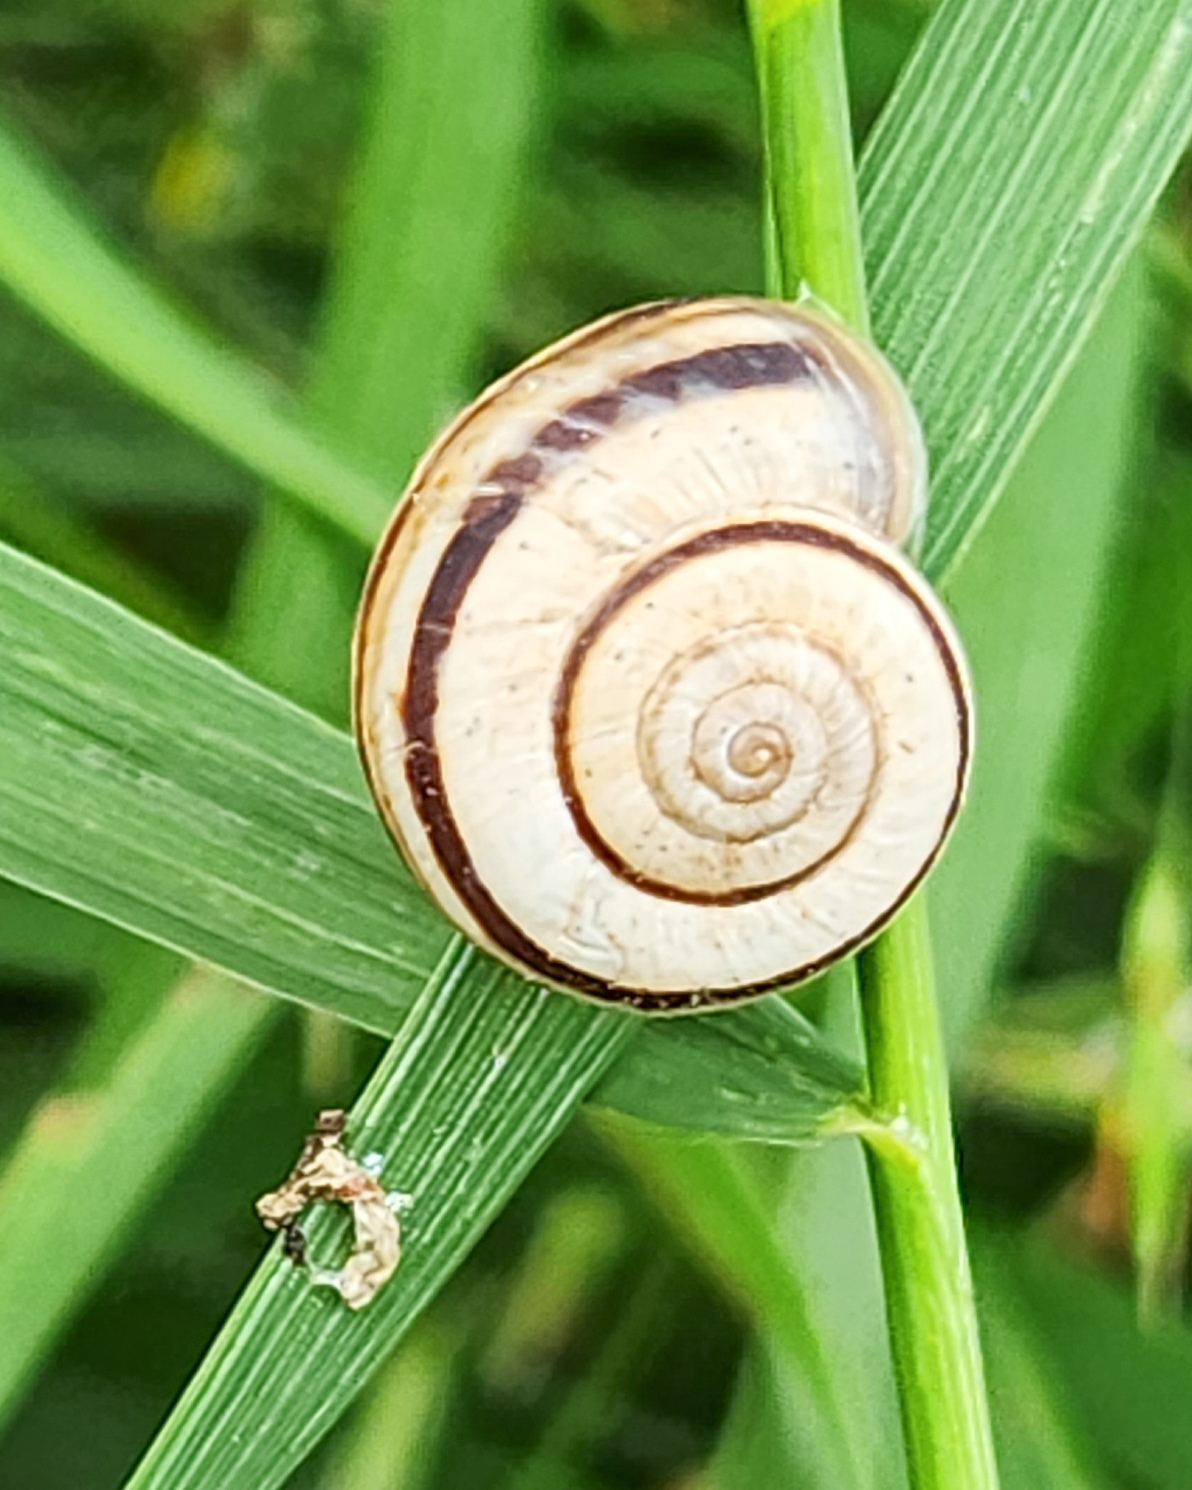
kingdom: Animalia
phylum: Mollusca
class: Gastropoda
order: Stylommatophora
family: Geomitridae
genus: Xerolenta
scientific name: Xerolenta obvia
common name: White heath snail
